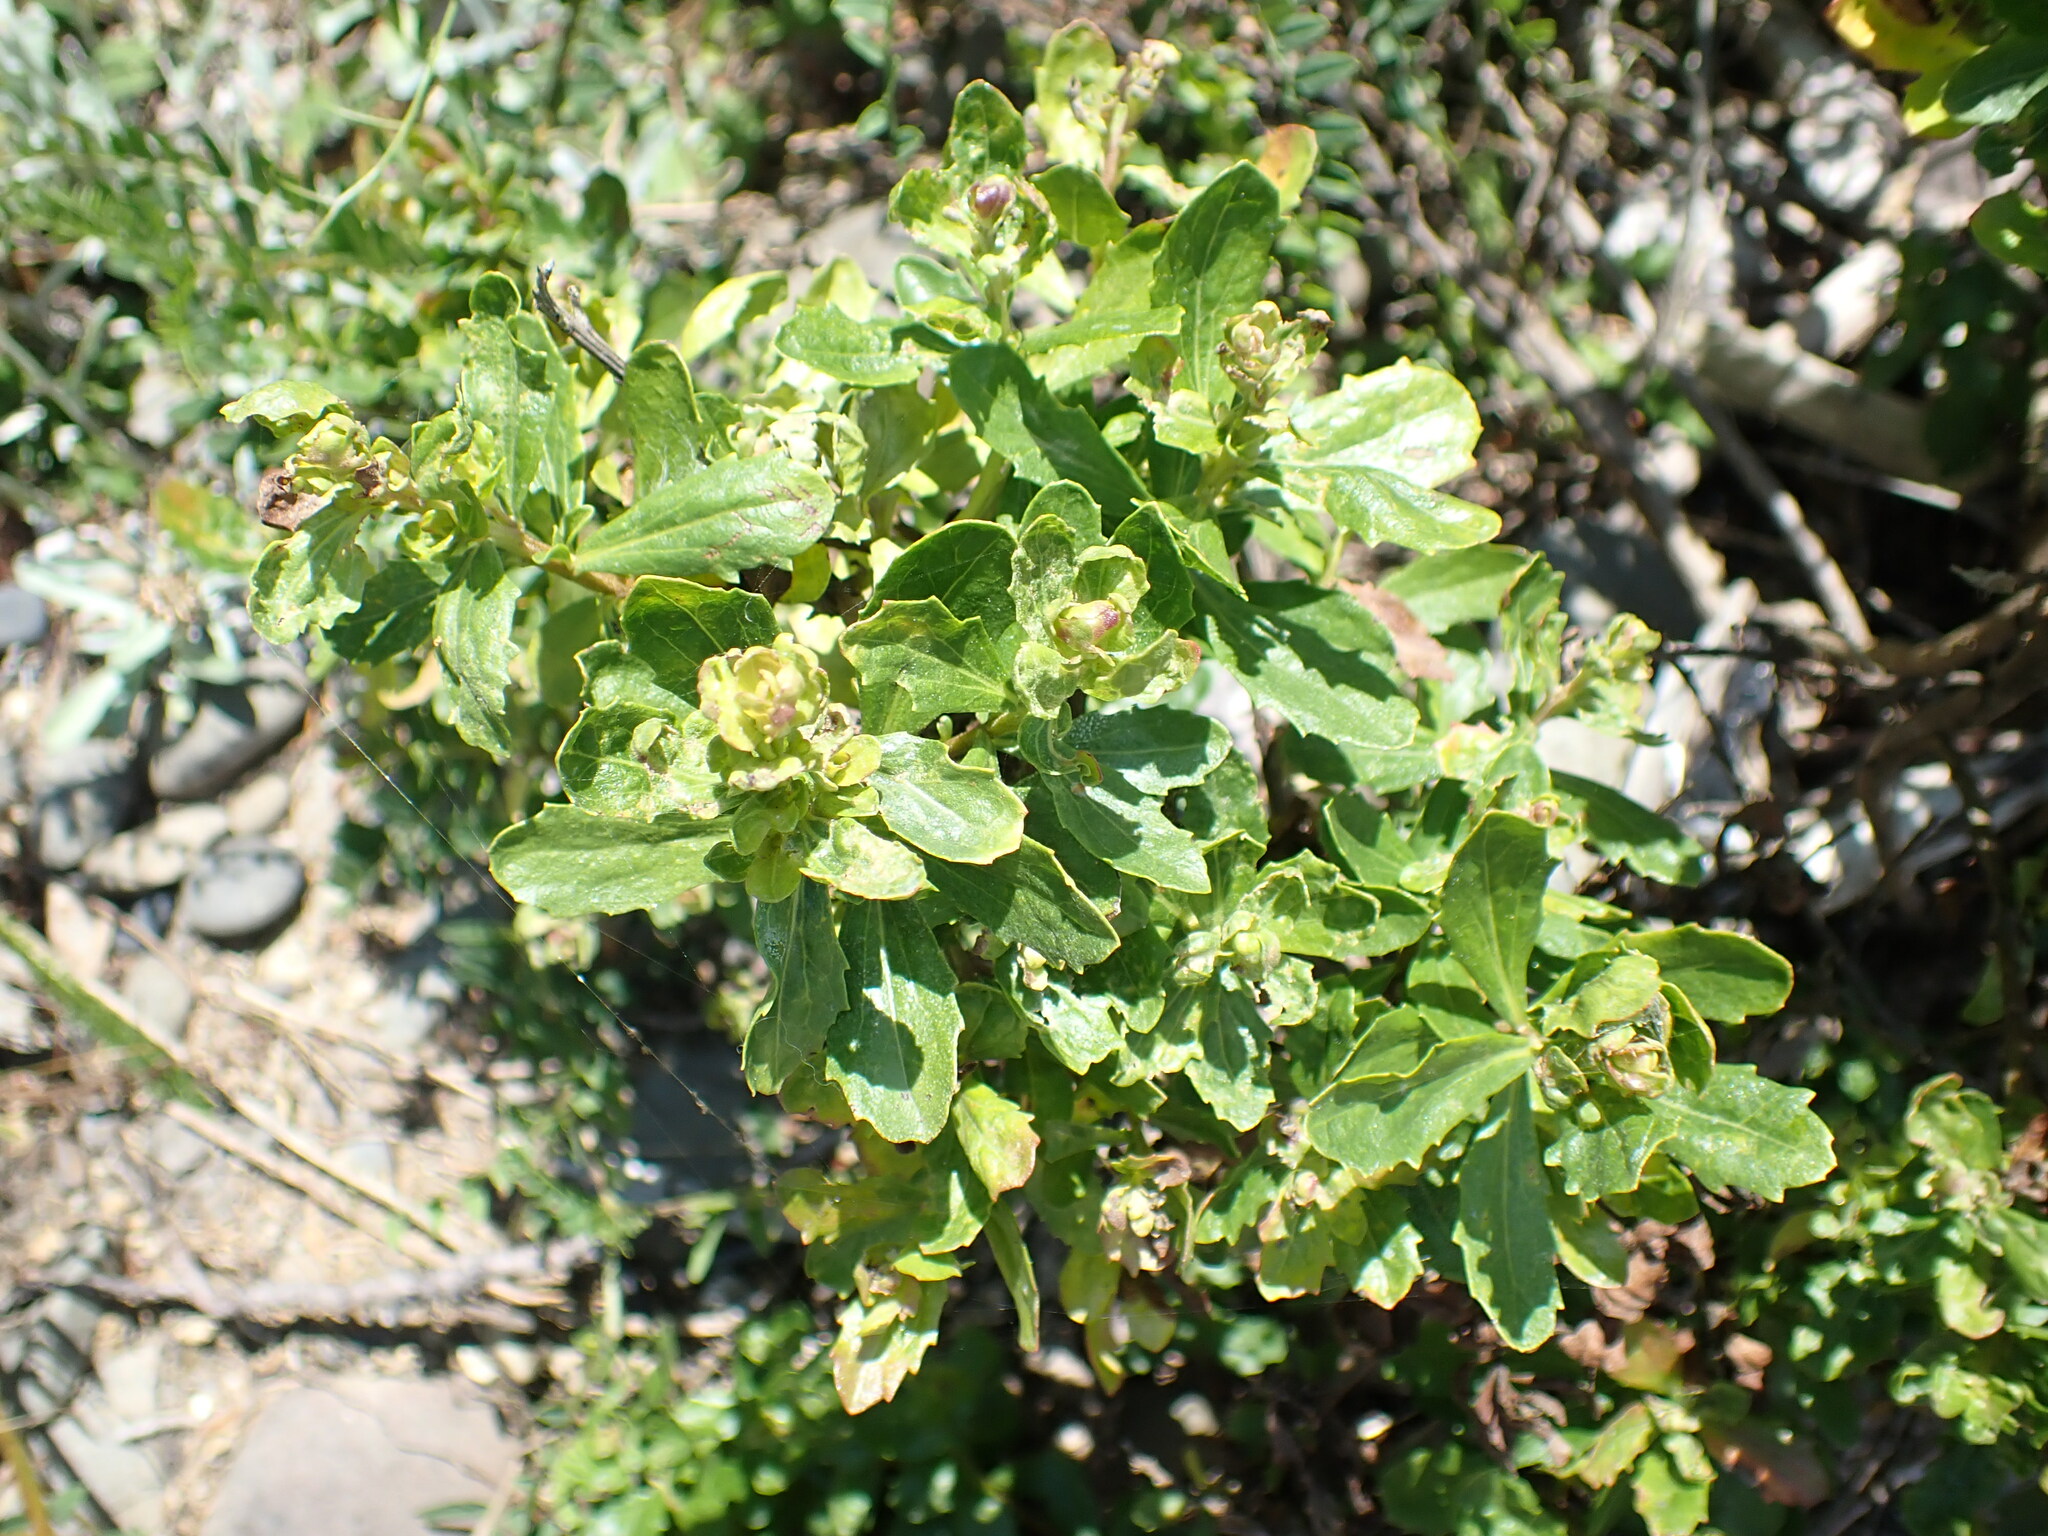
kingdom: Plantae
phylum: Tracheophyta
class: Magnoliopsida
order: Asterales
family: Asteraceae
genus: Baccharis
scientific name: Baccharis pilularis
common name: Coyotebrush
